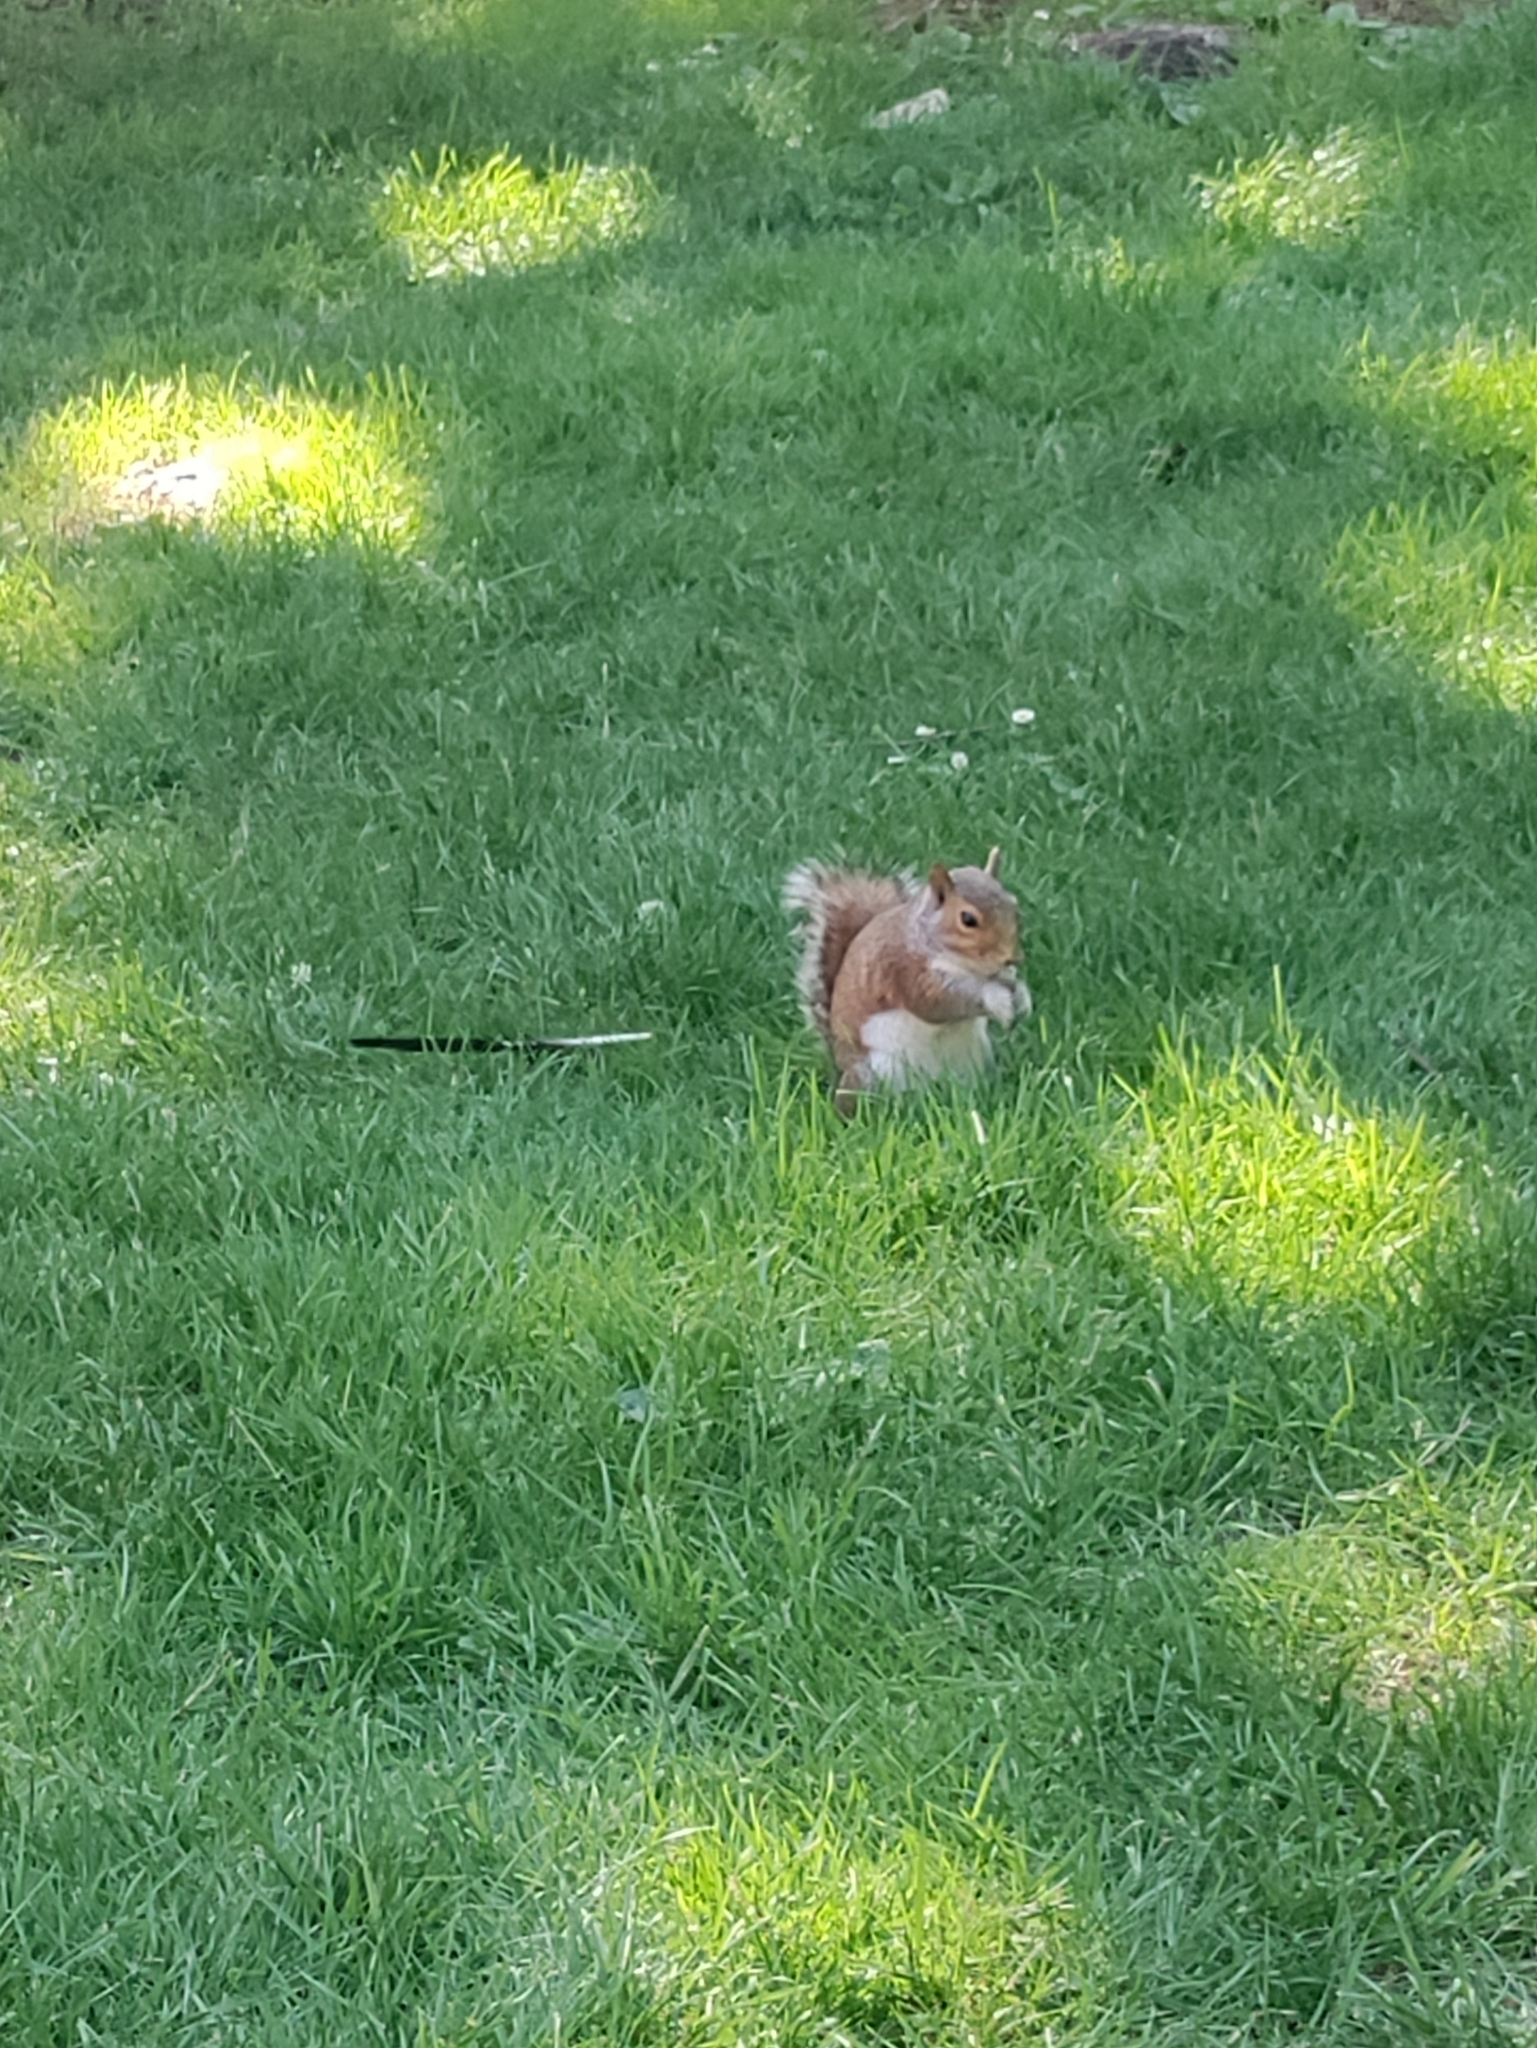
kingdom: Animalia
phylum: Chordata
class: Mammalia
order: Rodentia
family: Sciuridae
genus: Sciurus
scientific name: Sciurus carolinensis
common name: Eastern gray squirrel
